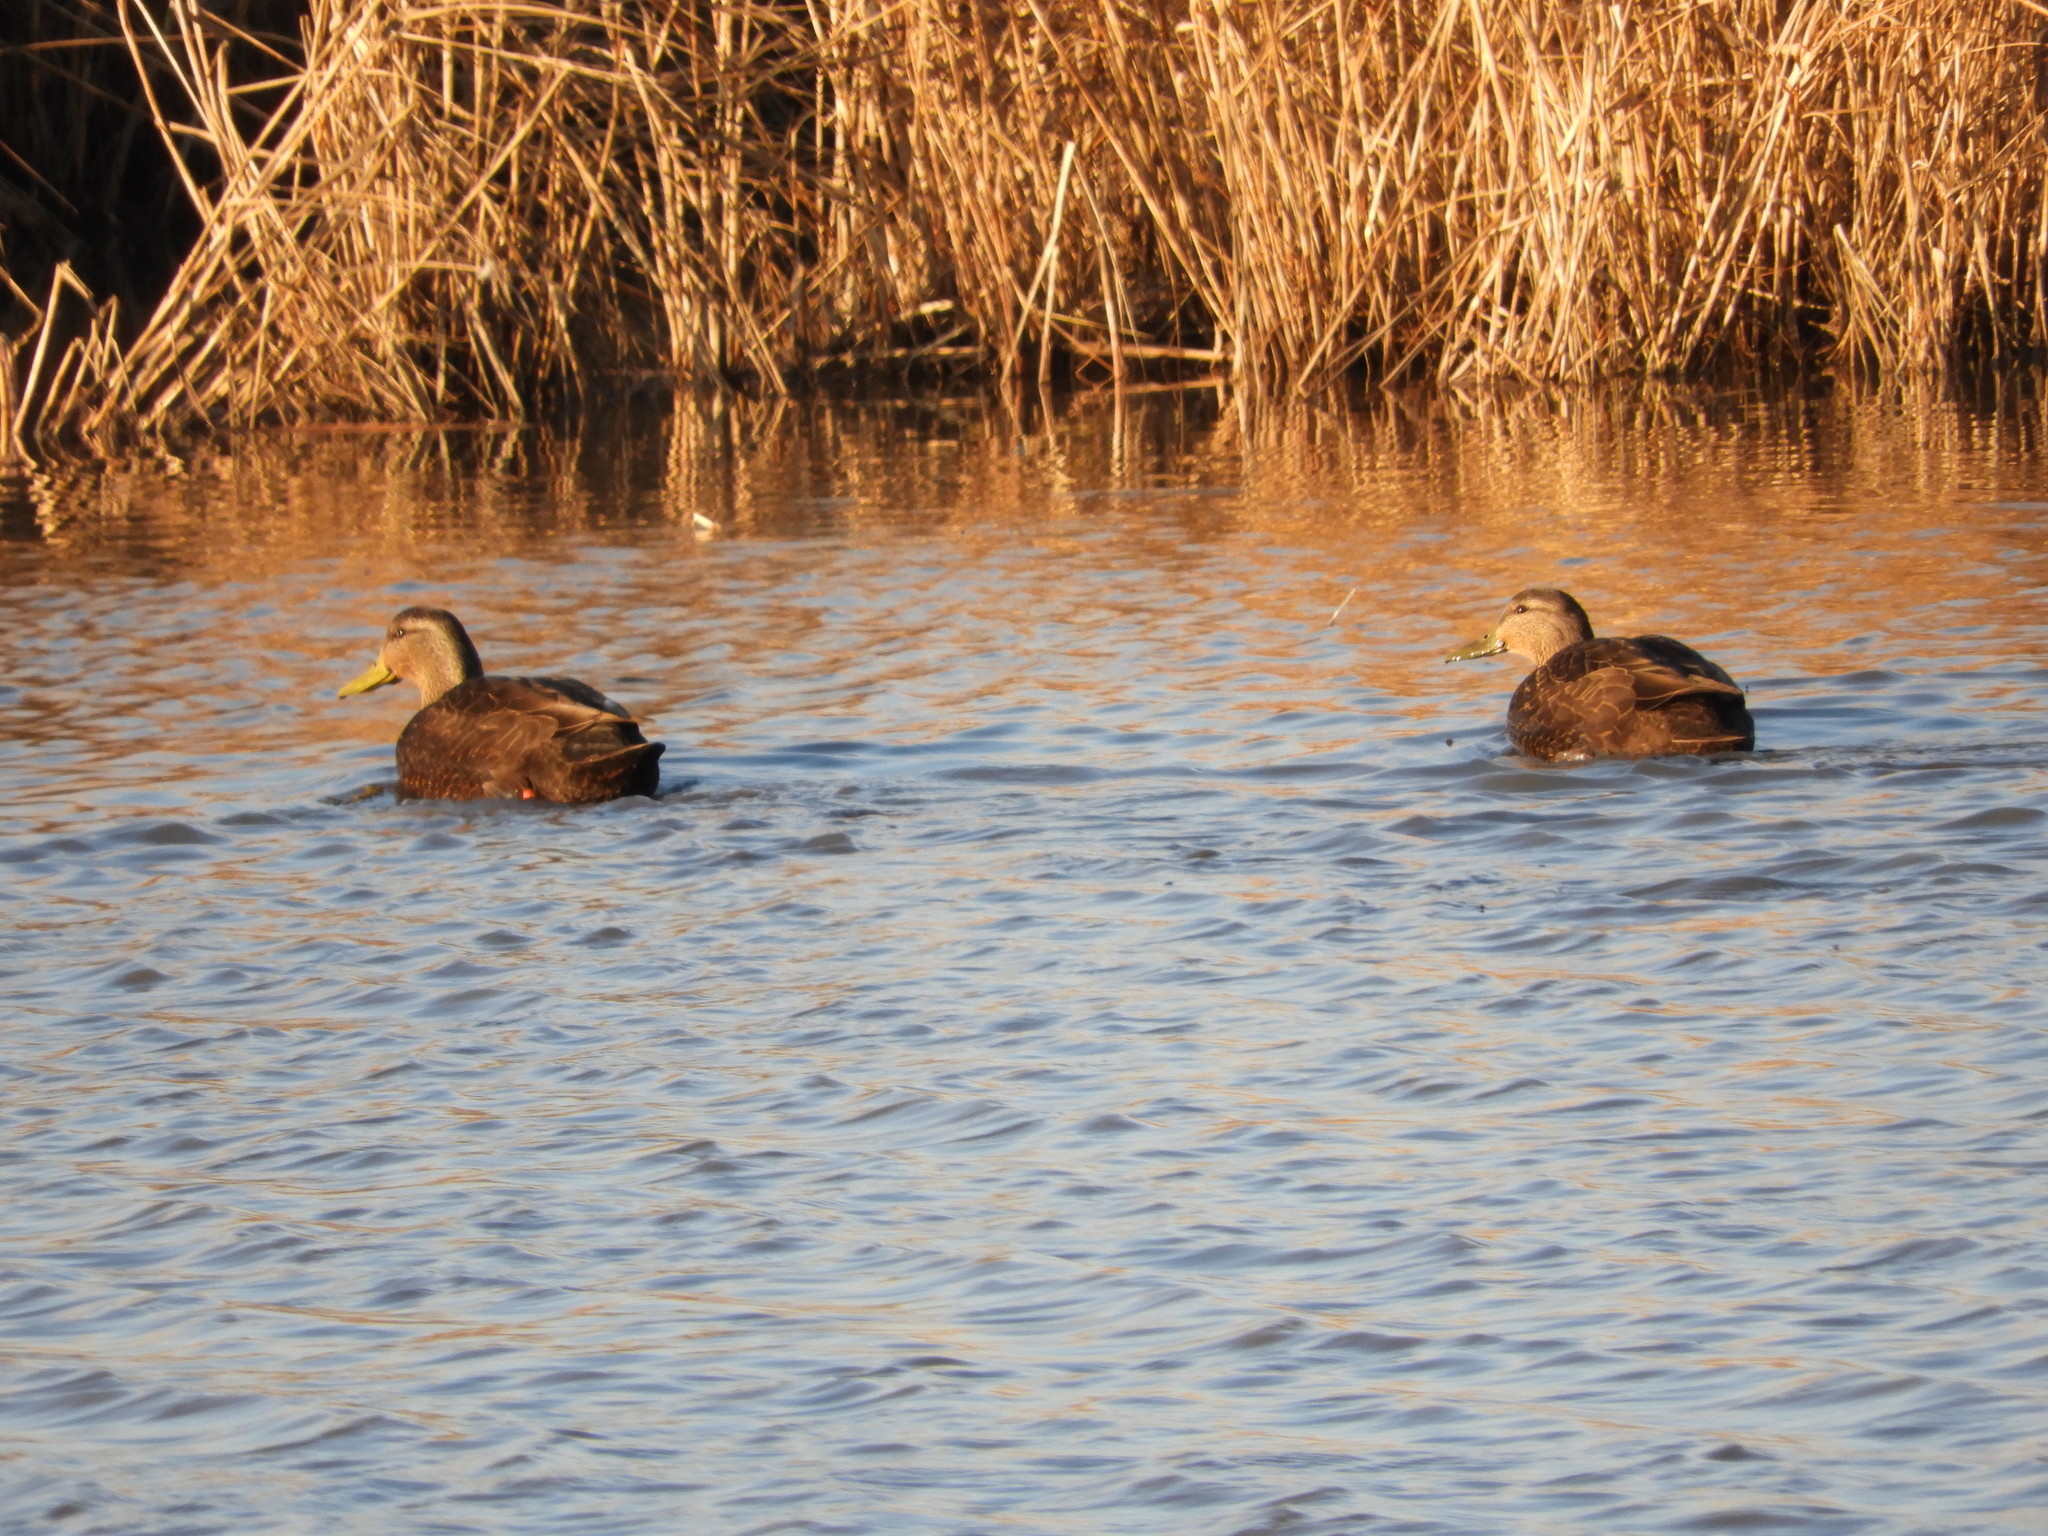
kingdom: Animalia
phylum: Chordata
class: Aves
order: Anseriformes
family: Anatidae
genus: Anas
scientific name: Anas rubripes
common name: American black duck
